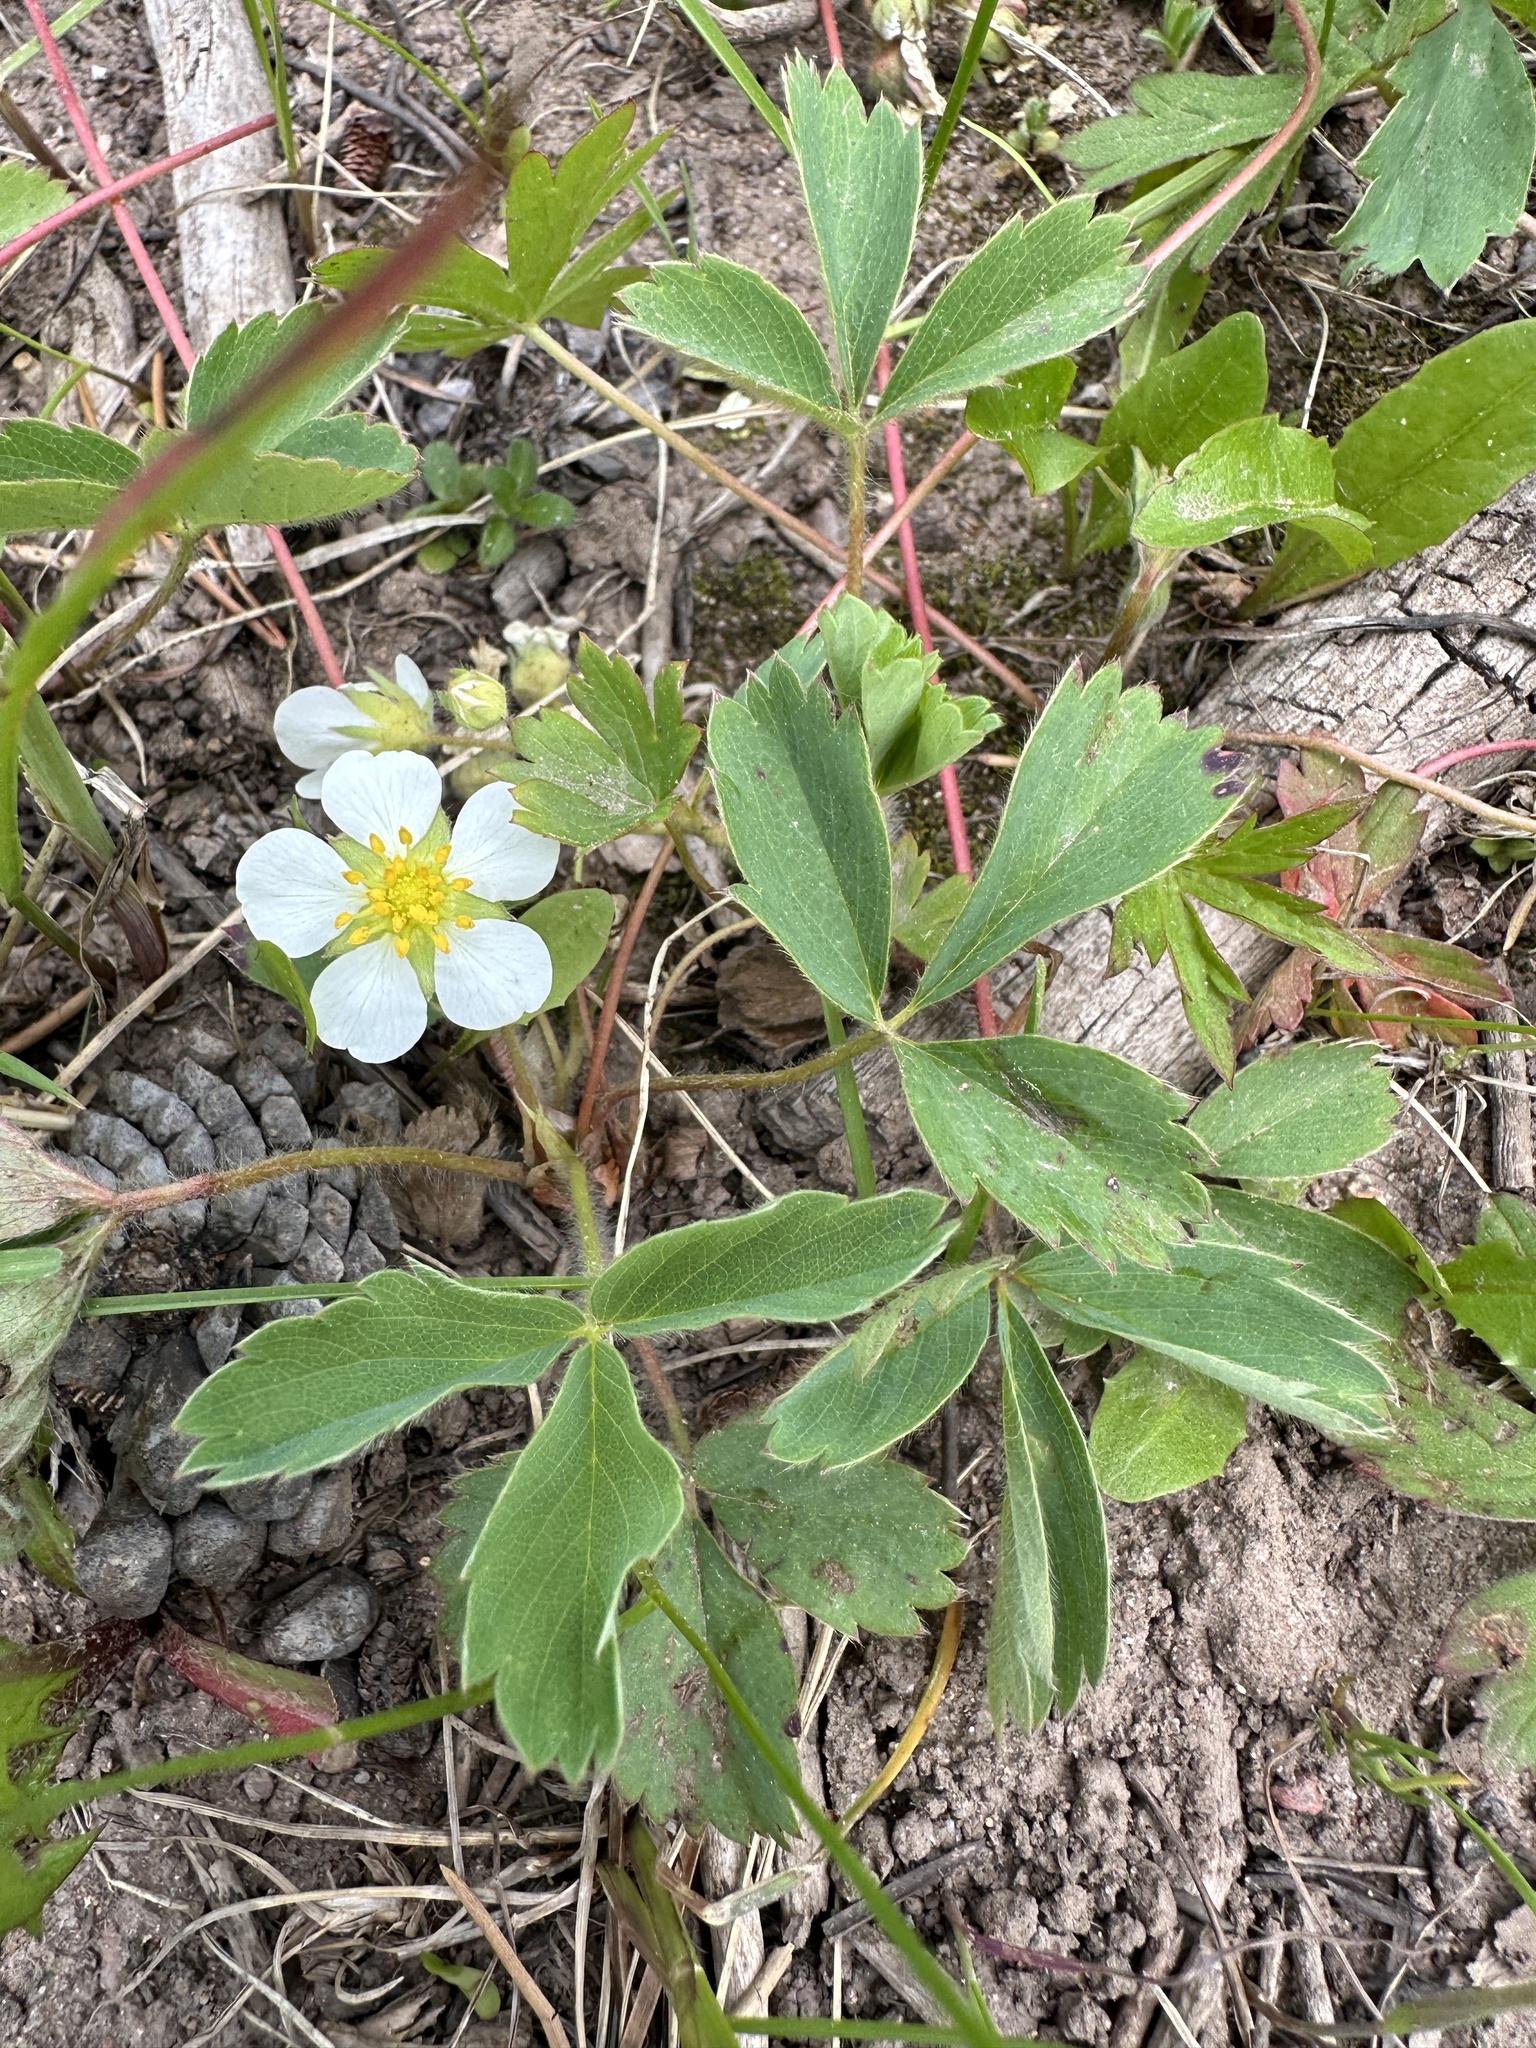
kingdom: Plantae
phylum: Tracheophyta
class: Magnoliopsida
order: Rosales
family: Rosaceae
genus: Fragaria
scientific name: Fragaria virginiana
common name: Thickleaved wild strawberry
